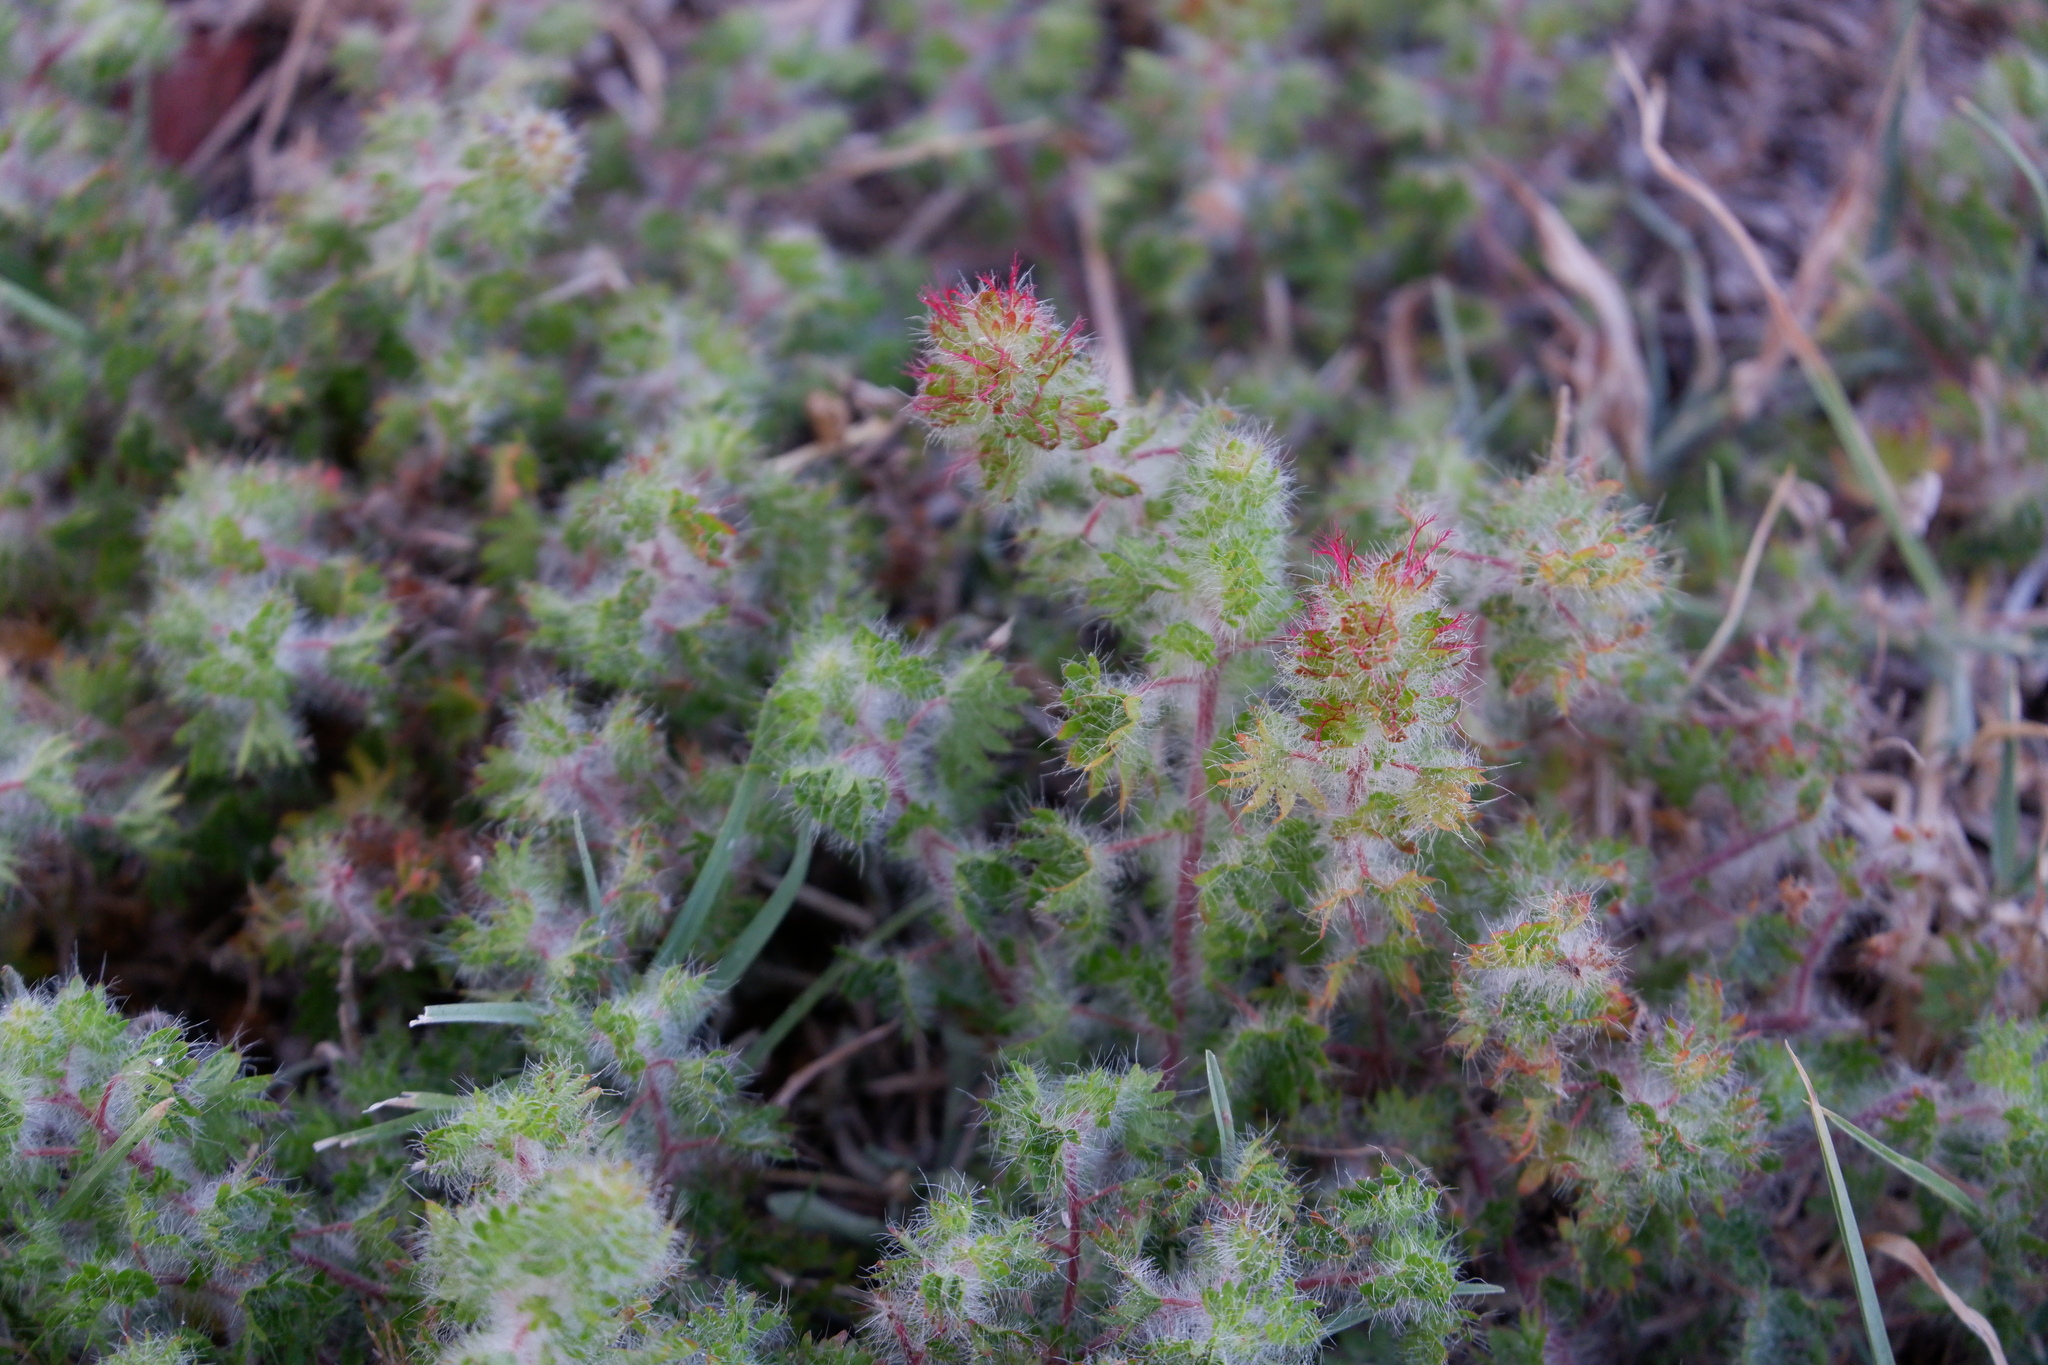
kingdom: Plantae
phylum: Tracheophyta
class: Magnoliopsida
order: Malpighiales
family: Euphorbiaceae
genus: Acalypha
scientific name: Acalypha radians
